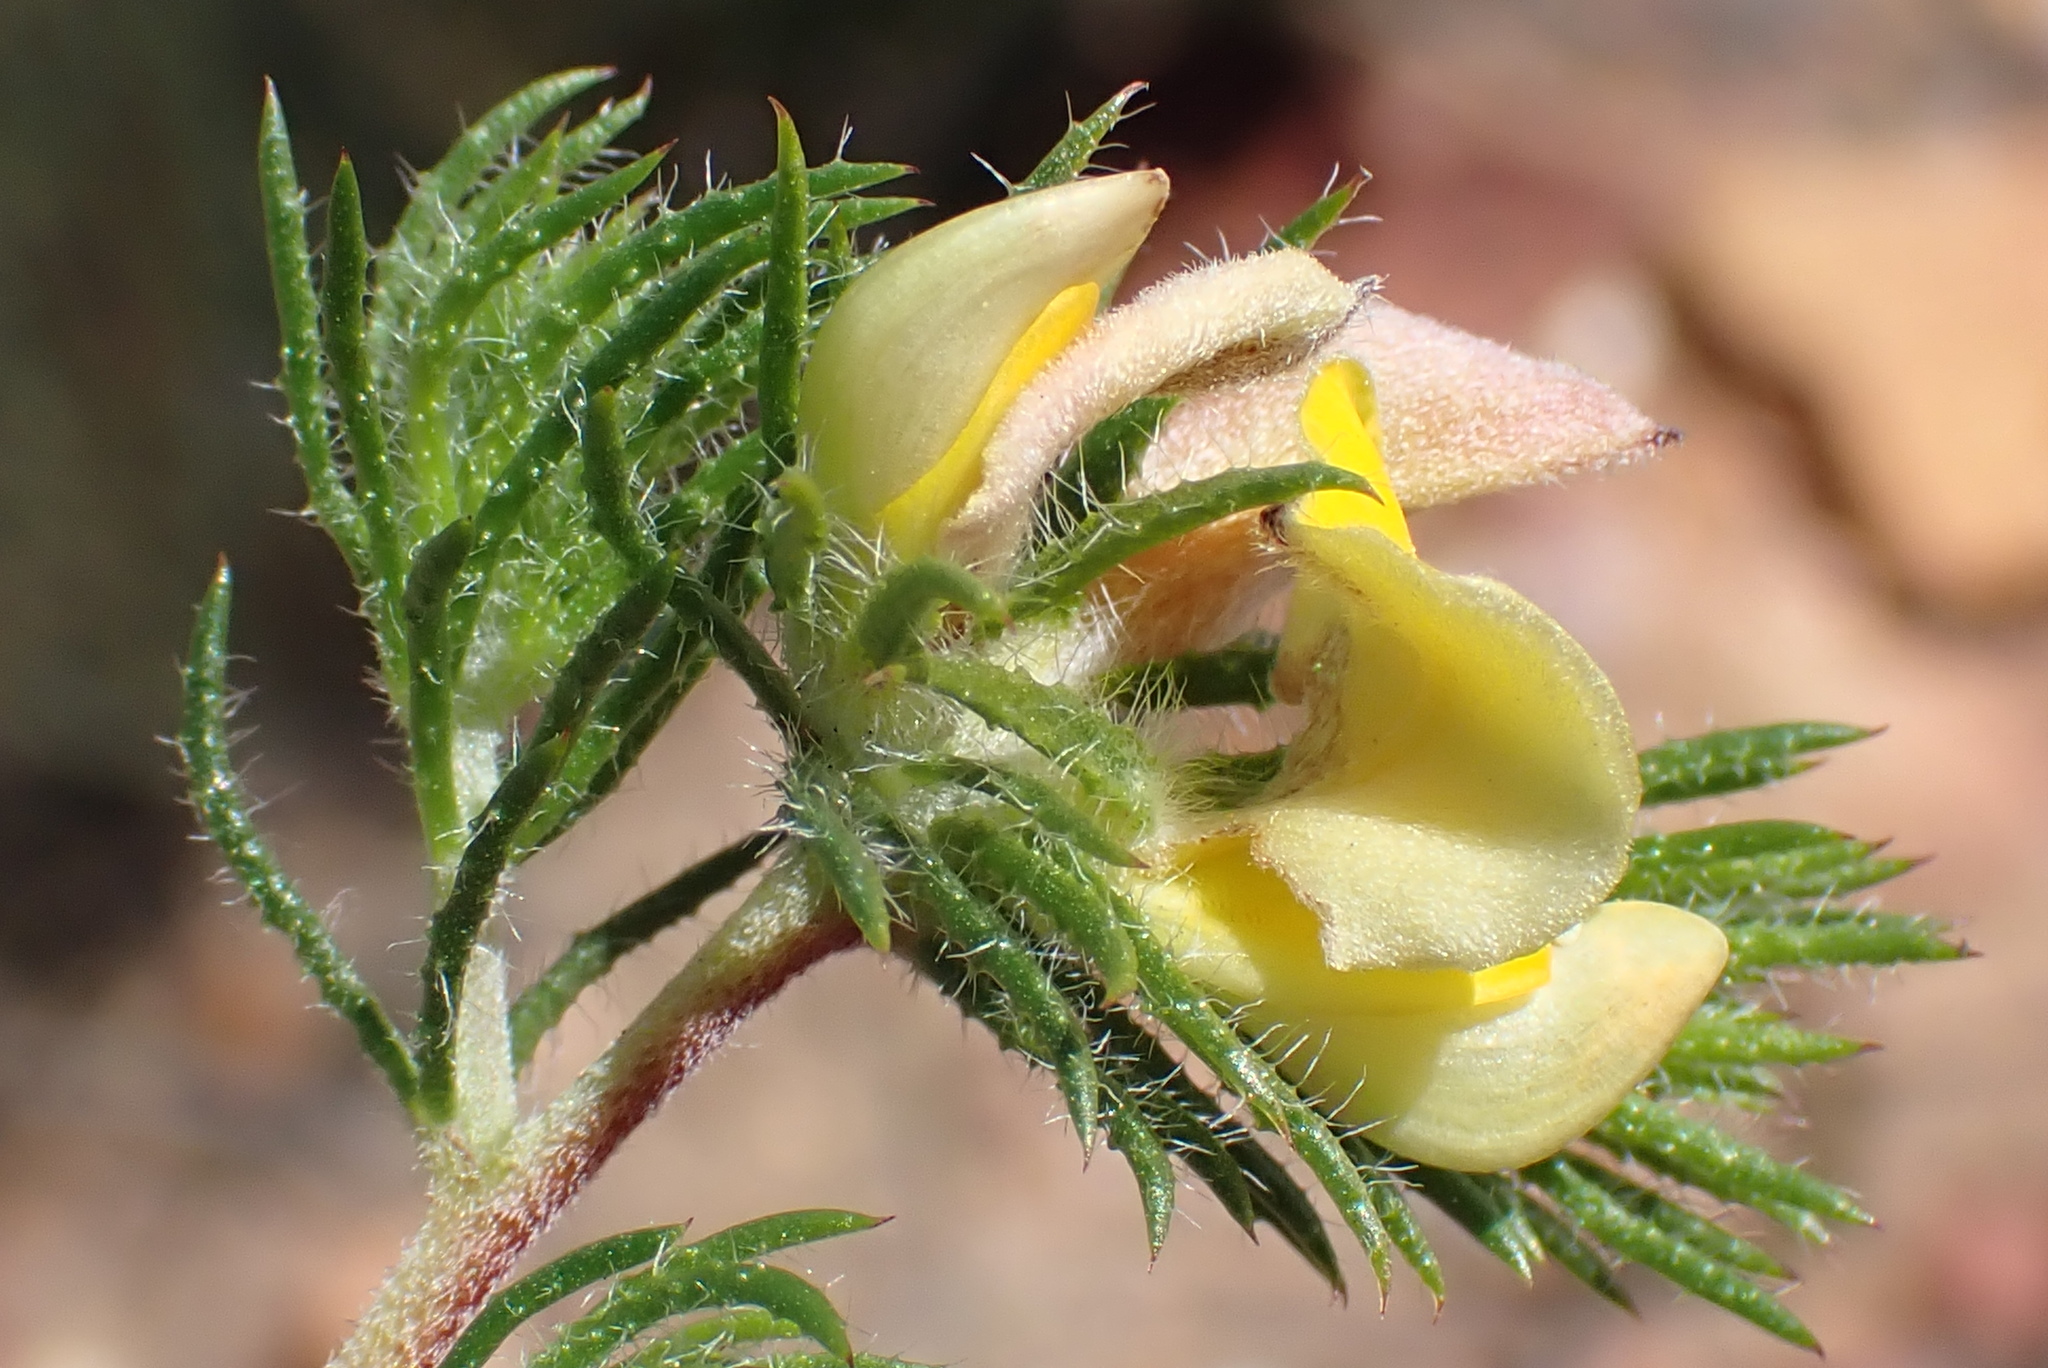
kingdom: Plantae
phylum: Tracheophyta
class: Magnoliopsida
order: Fabales
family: Fabaceae
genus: Aspalathus
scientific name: Aspalathus ciliaris
